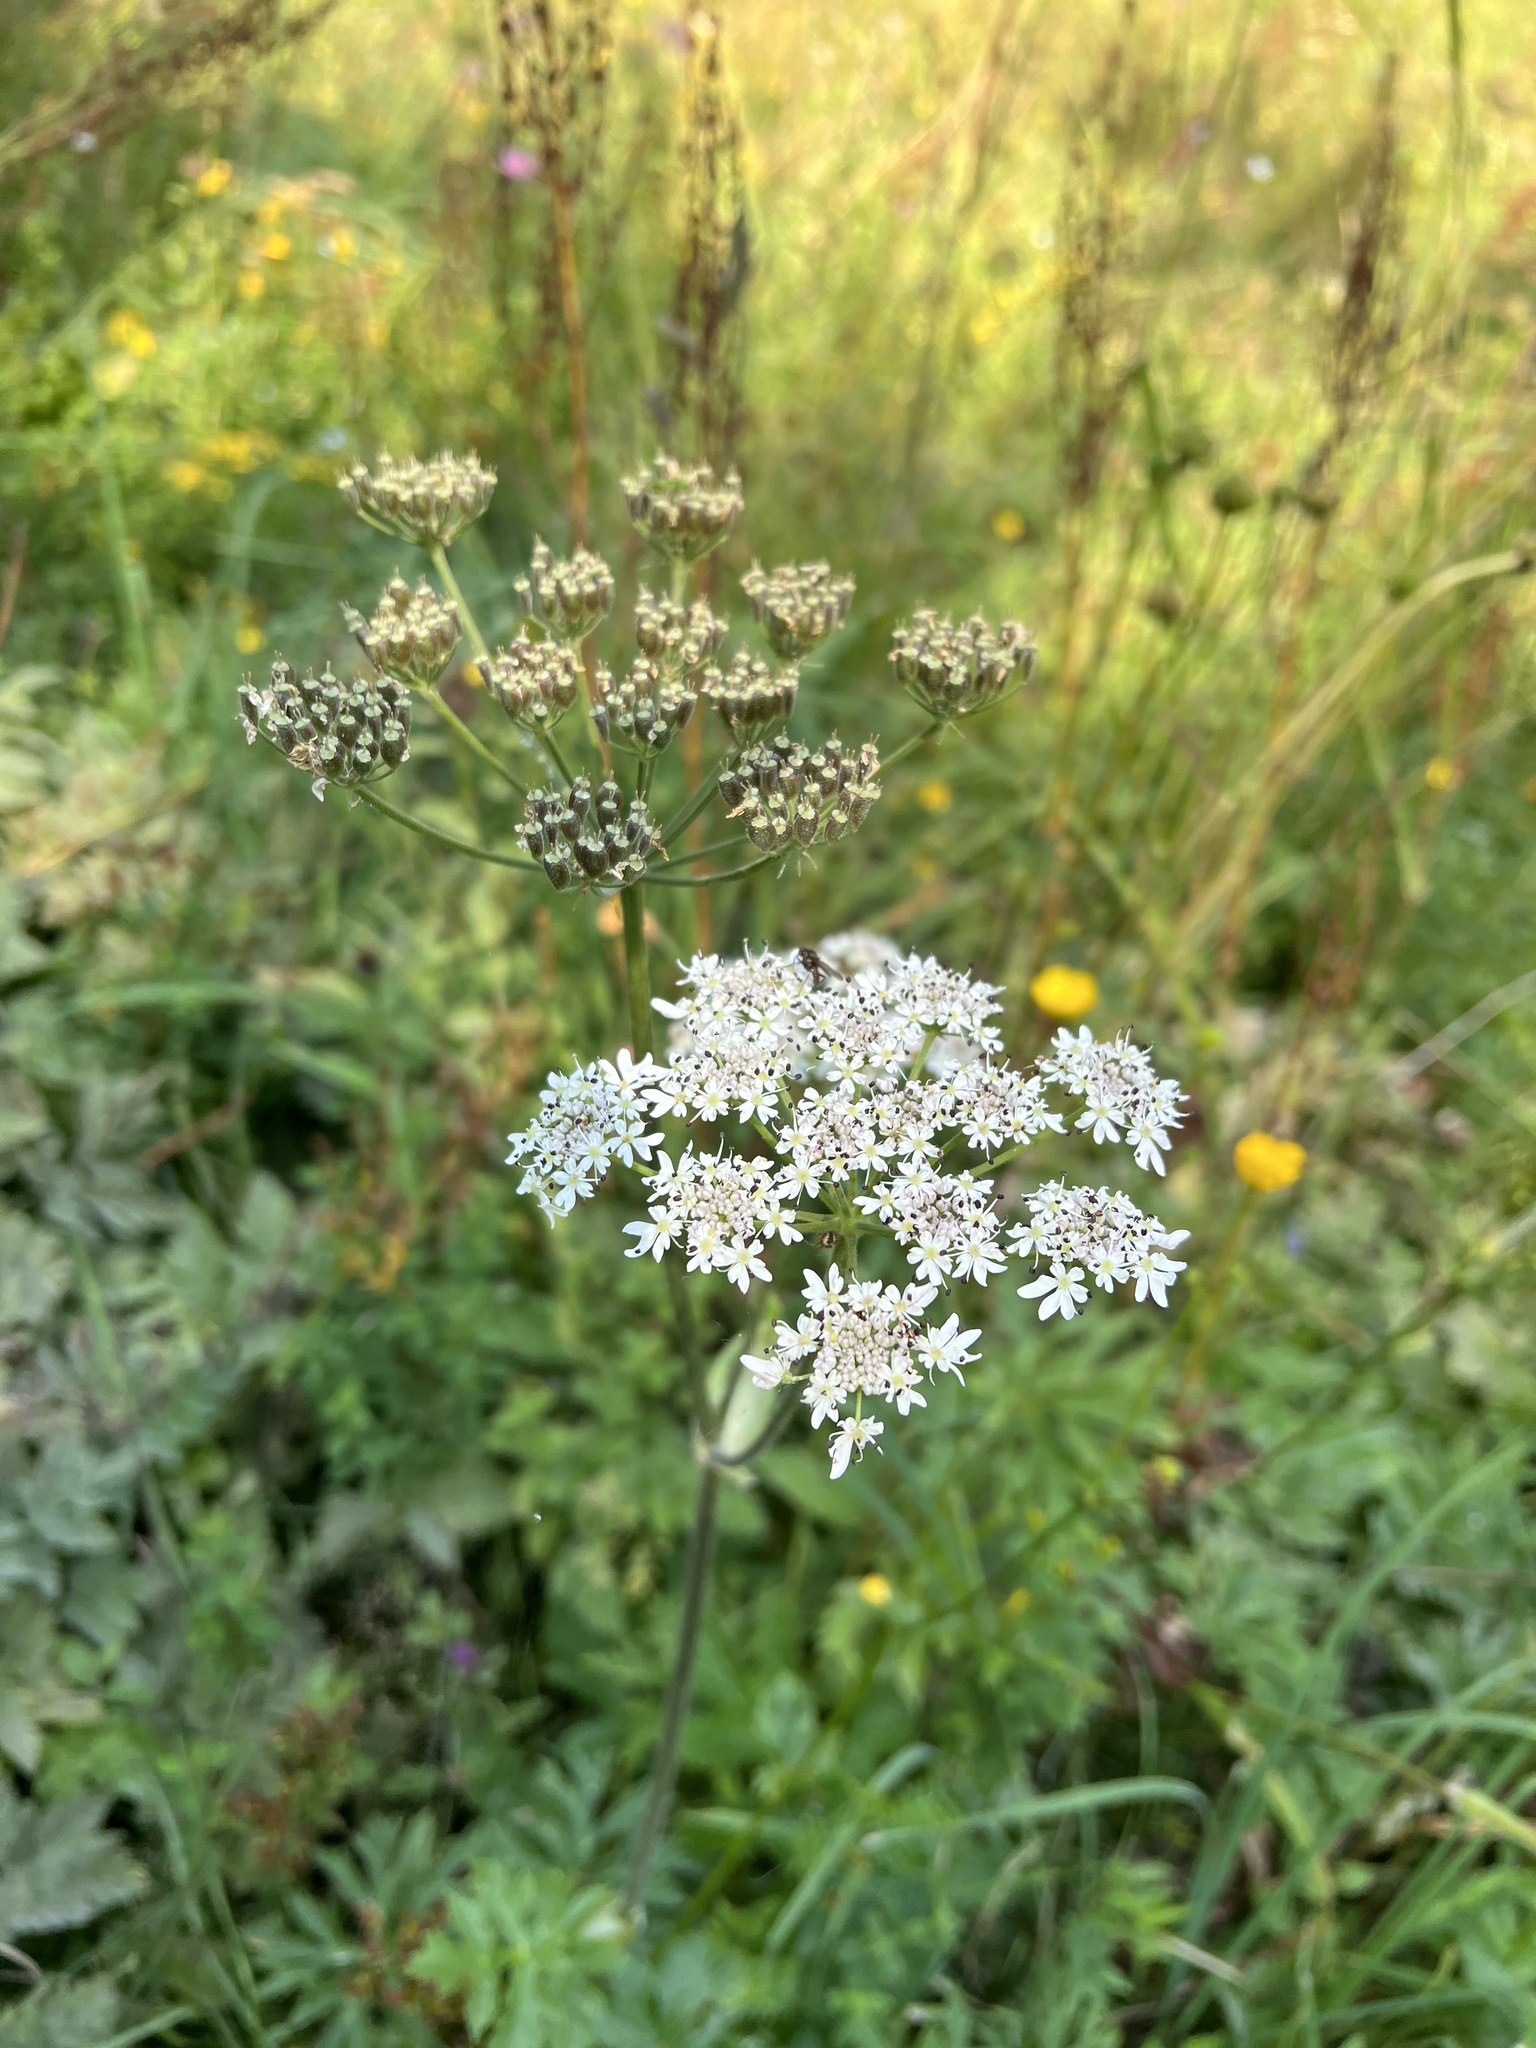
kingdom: Plantae
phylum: Tracheophyta
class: Magnoliopsida
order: Apiales
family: Apiaceae
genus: Heracleum
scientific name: Heracleum sphondylium
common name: Hogweed
